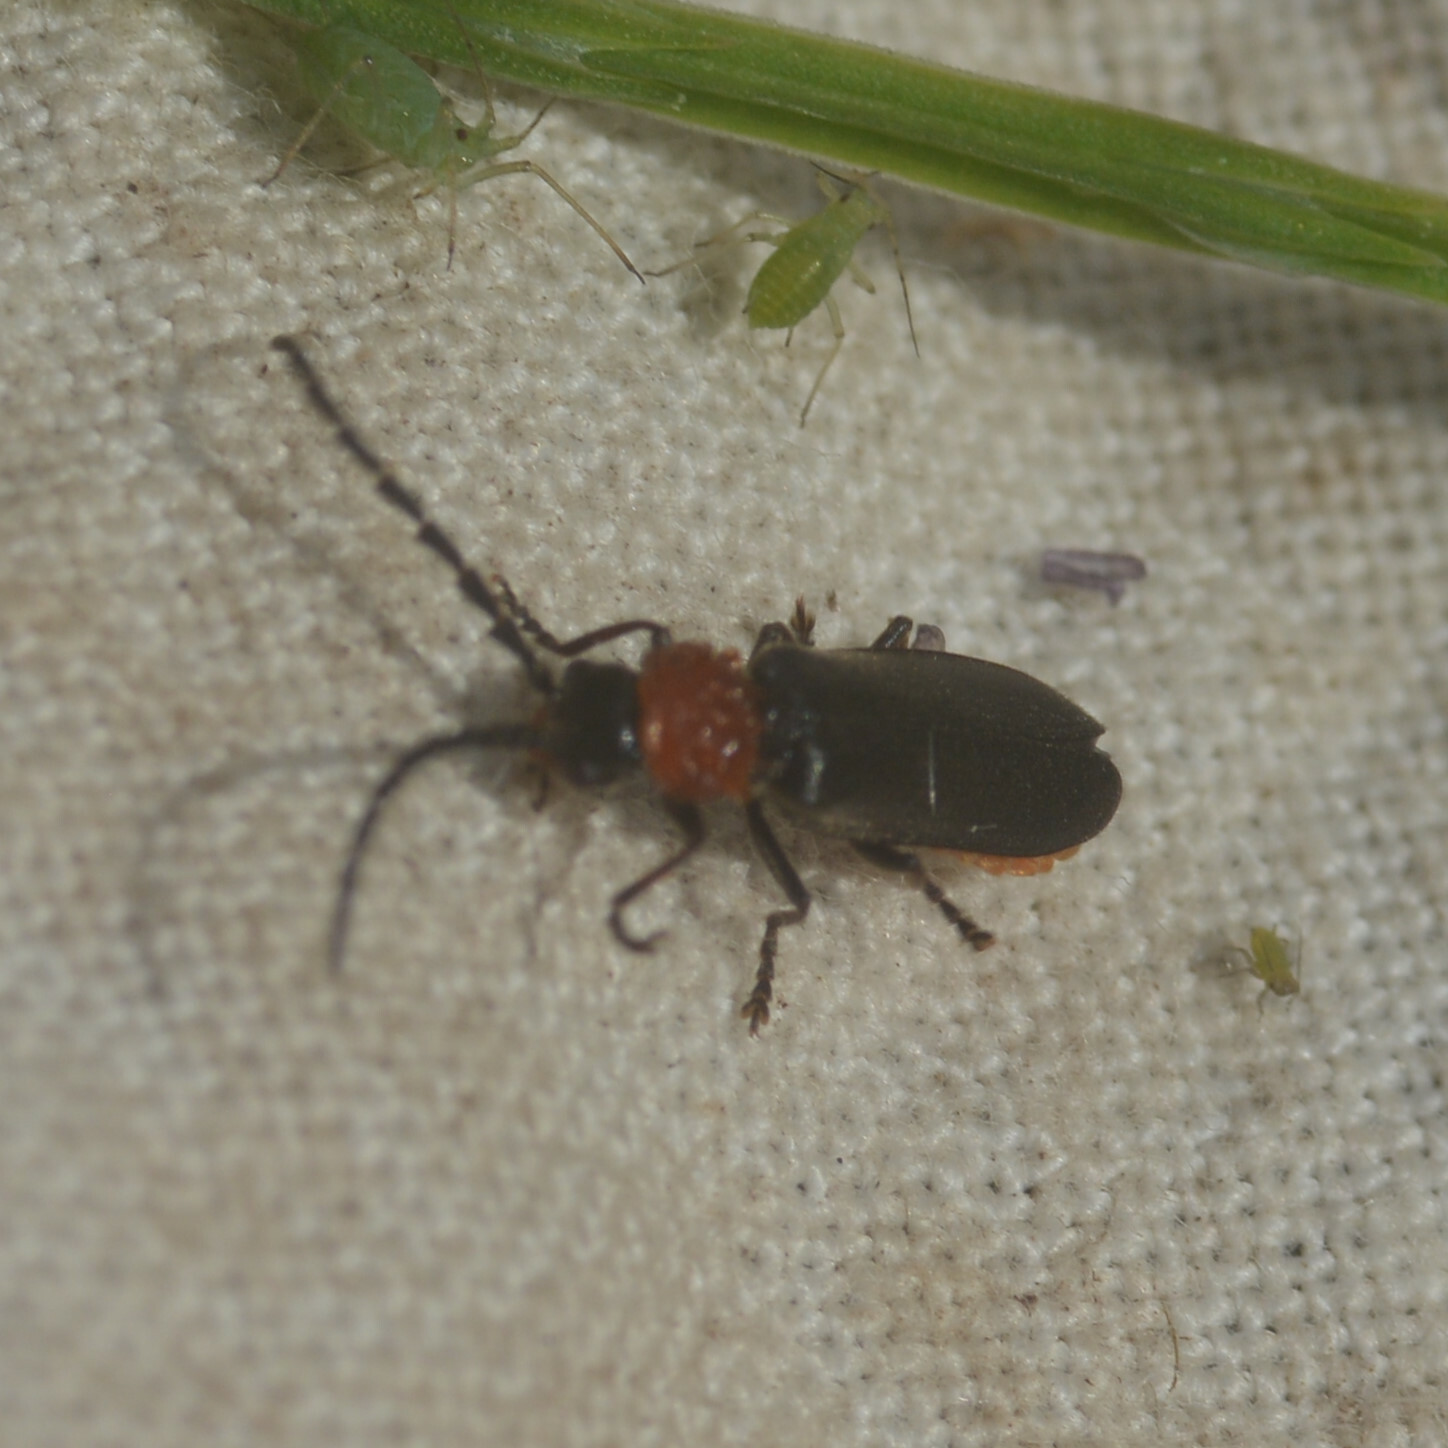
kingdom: Animalia
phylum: Arthropoda
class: Insecta
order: Coleoptera
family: Cantharidae
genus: Crudosilis
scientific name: Crudosilis ruficollis
